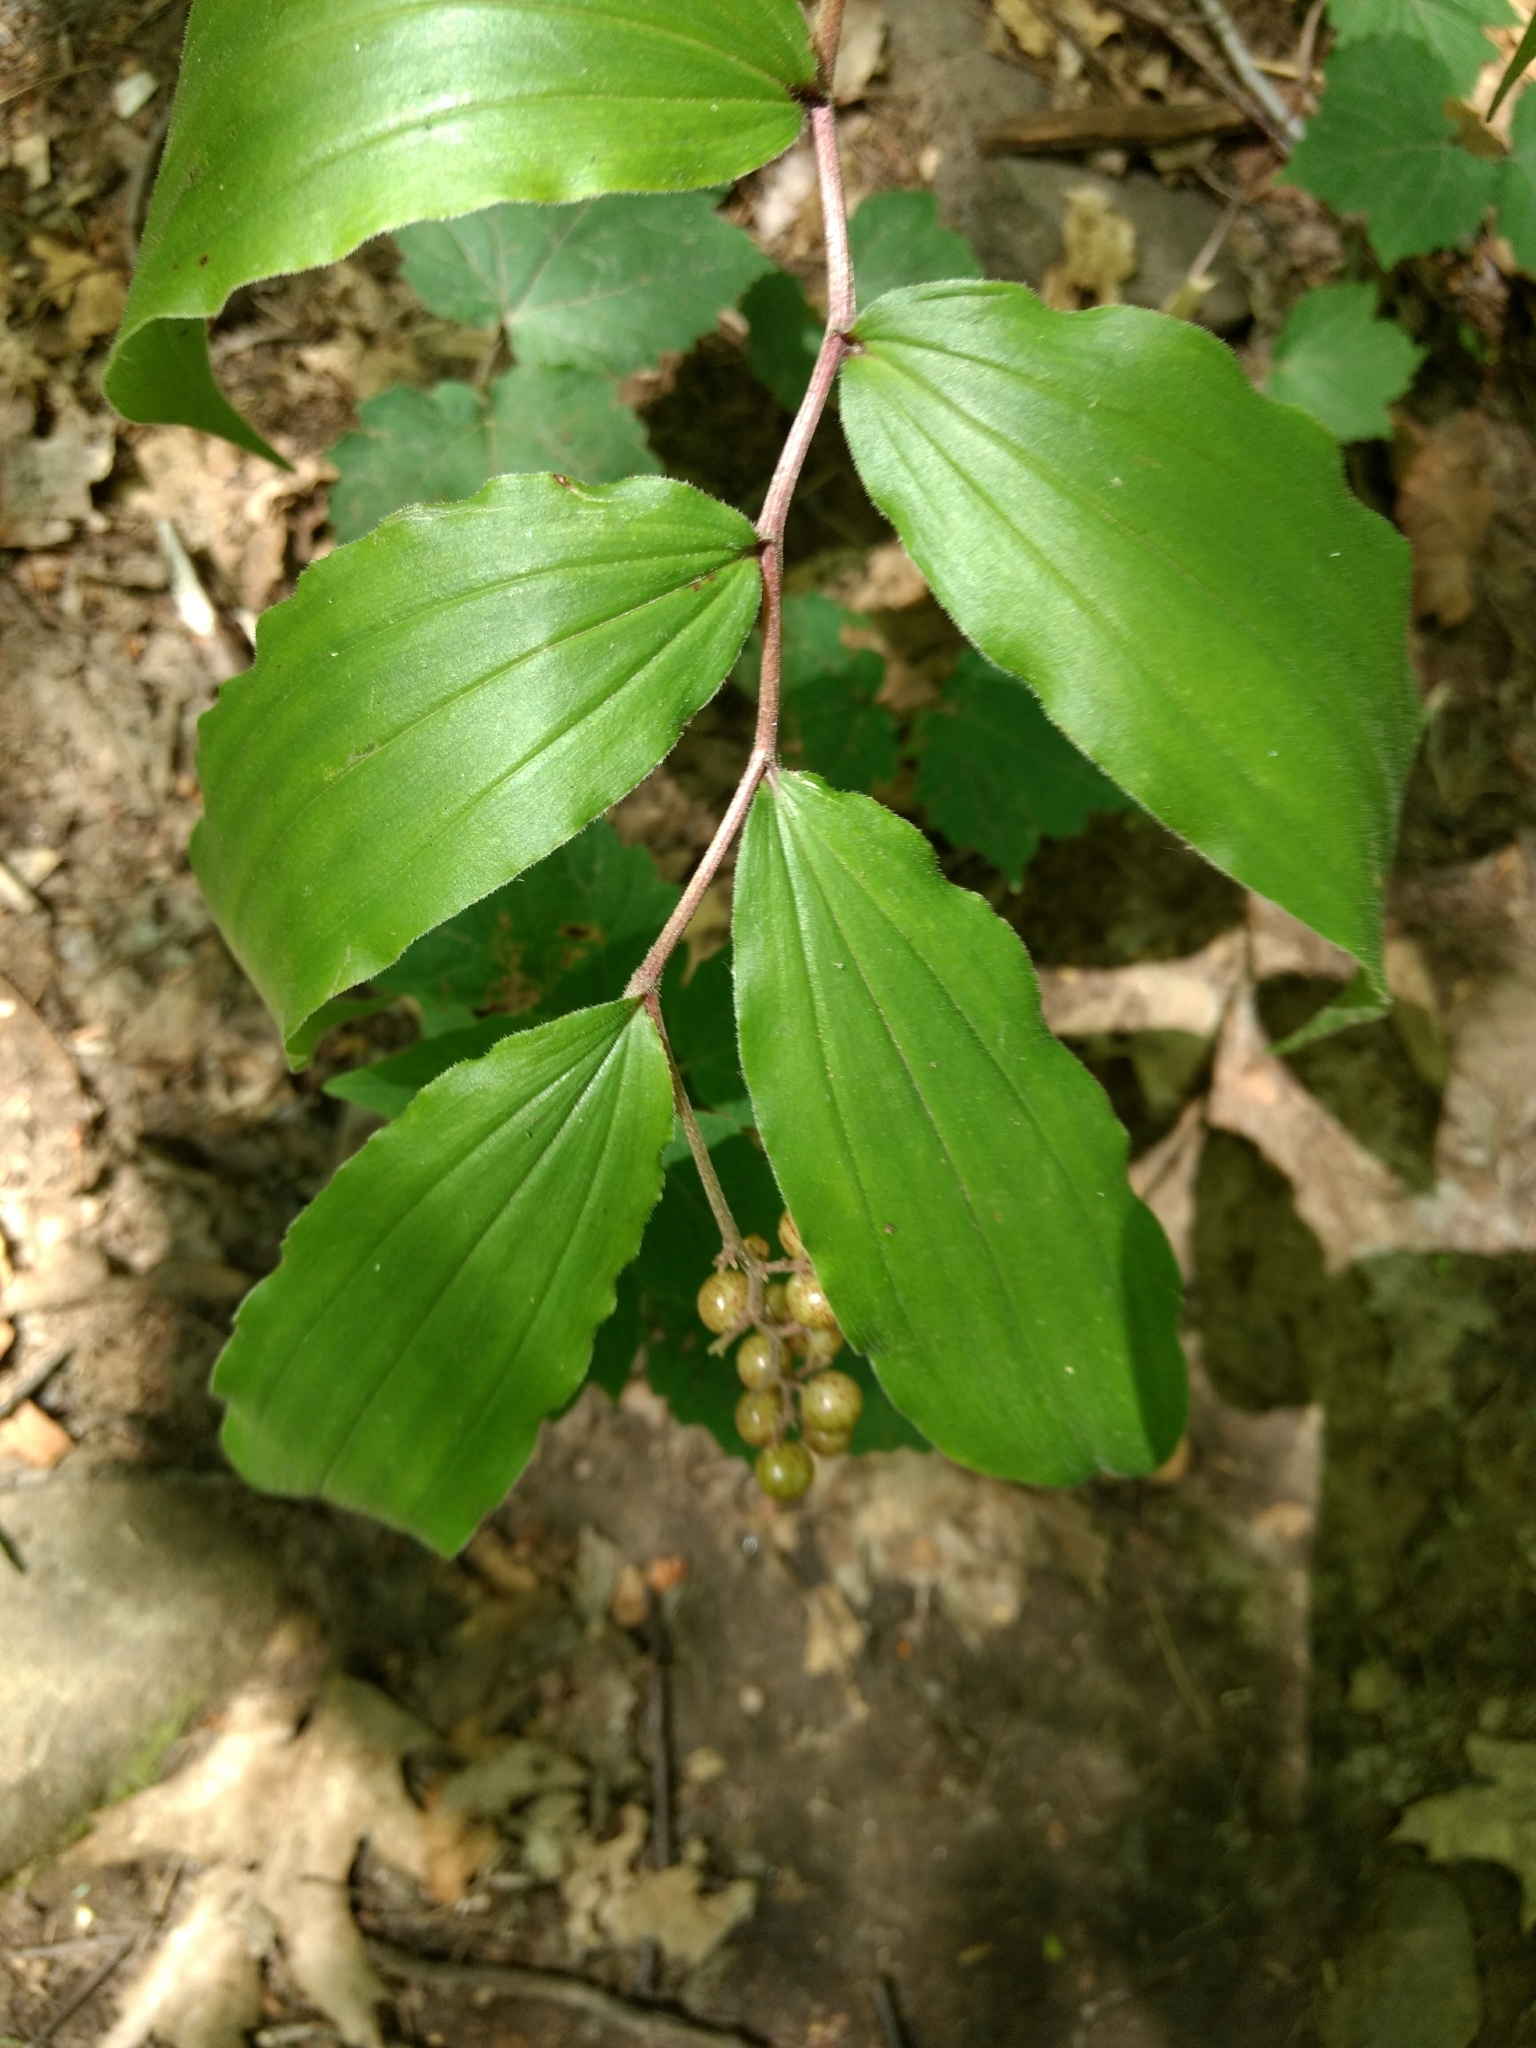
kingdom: Plantae
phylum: Tracheophyta
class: Liliopsida
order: Asparagales
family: Asparagaceae
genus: Maianthemum
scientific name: Maianthemum racemosum
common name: False spikenard
